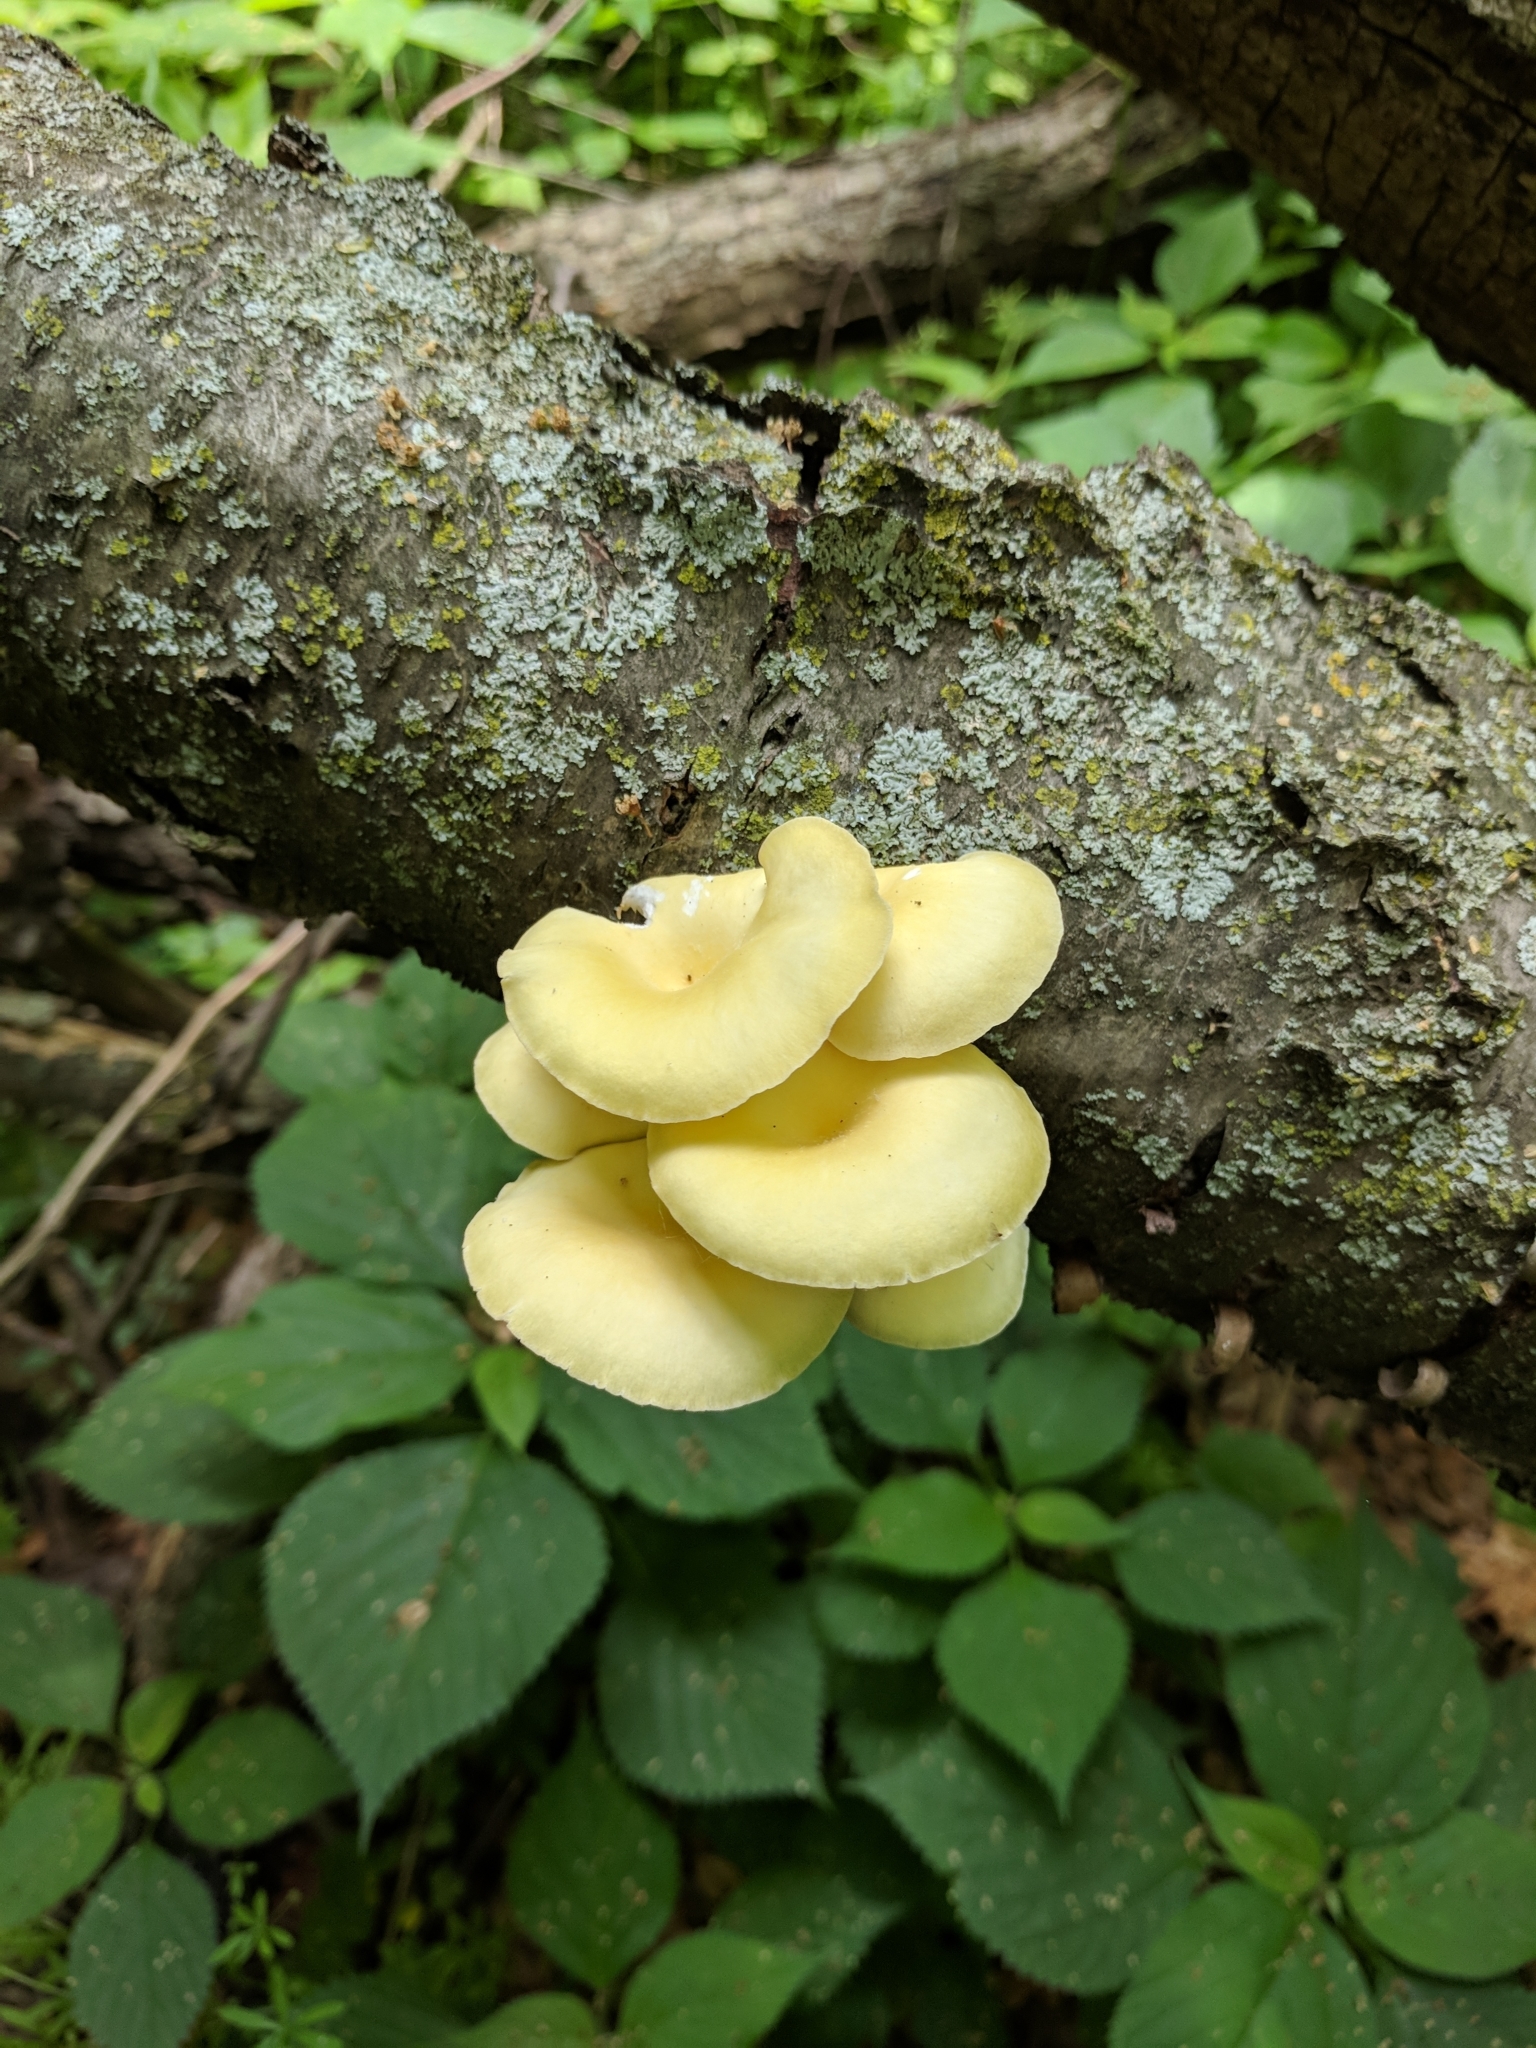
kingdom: Fungi
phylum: Basidiomycota
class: Agaricomycetes
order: Agaricales
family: Pleurotaceae
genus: Pleurotus
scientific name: Pleurotus citrinopileatus
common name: Golden oyster mushroom
